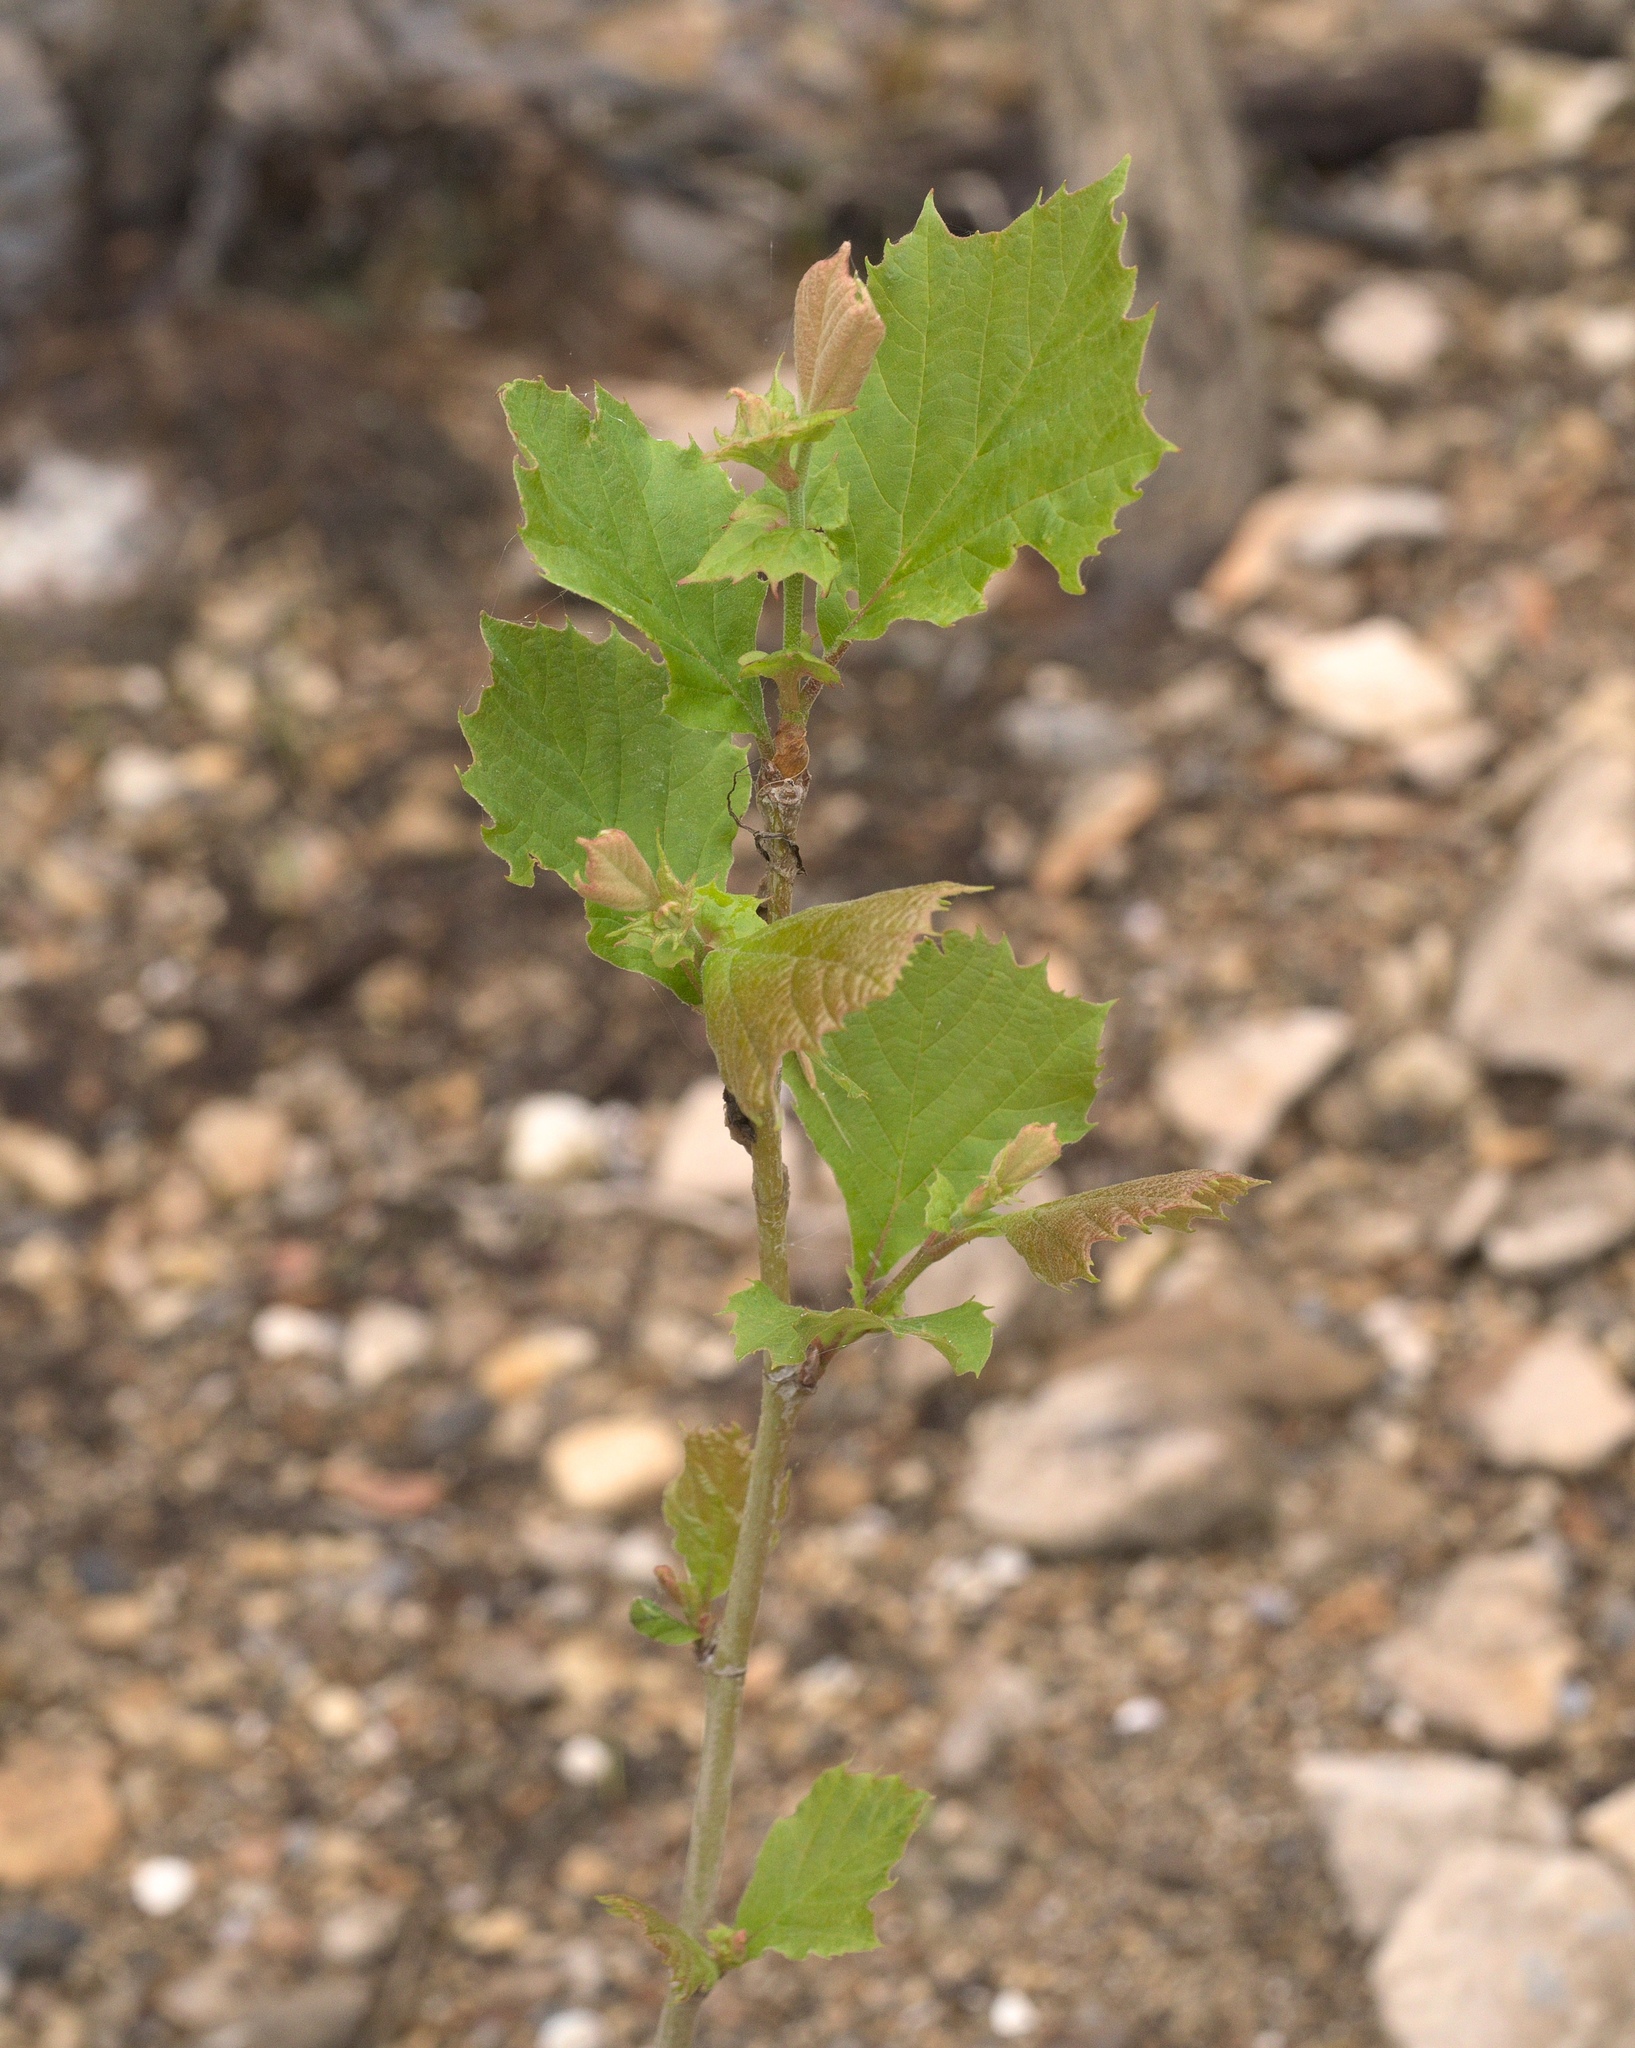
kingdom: Plantae
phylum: Tracheophyta
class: Magnoliopsida
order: Proteales
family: Platanaceae
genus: Platanus
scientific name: Platanus occidentalis
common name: American sycamore
